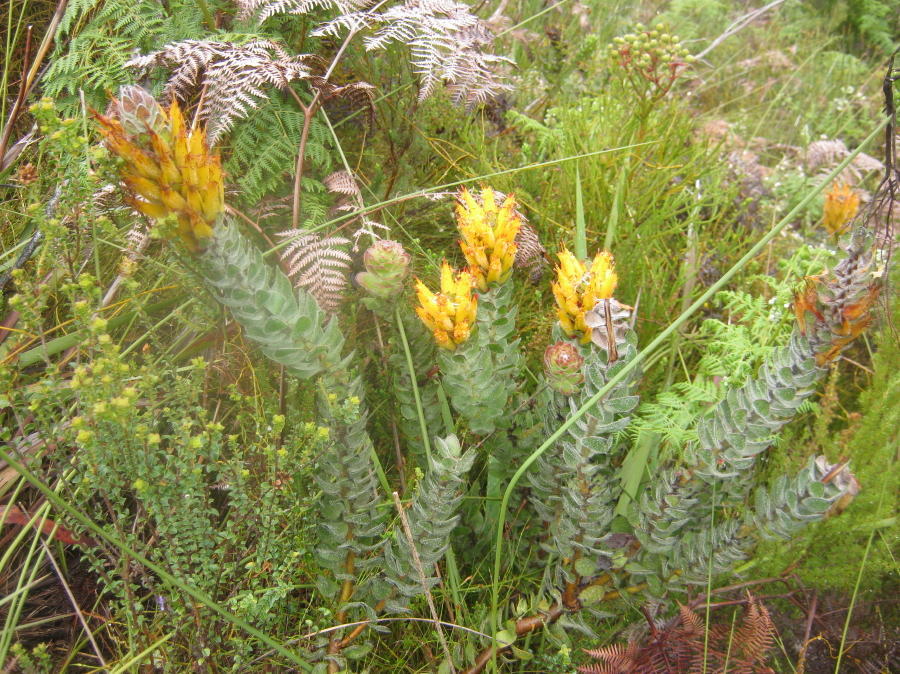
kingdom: Plantae
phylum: Tracheophyta
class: Magnoliopsida
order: Proteales
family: Proteaceae
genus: Mimetes
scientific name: Mimetes pauciflora
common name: Three-flowered pagoda
